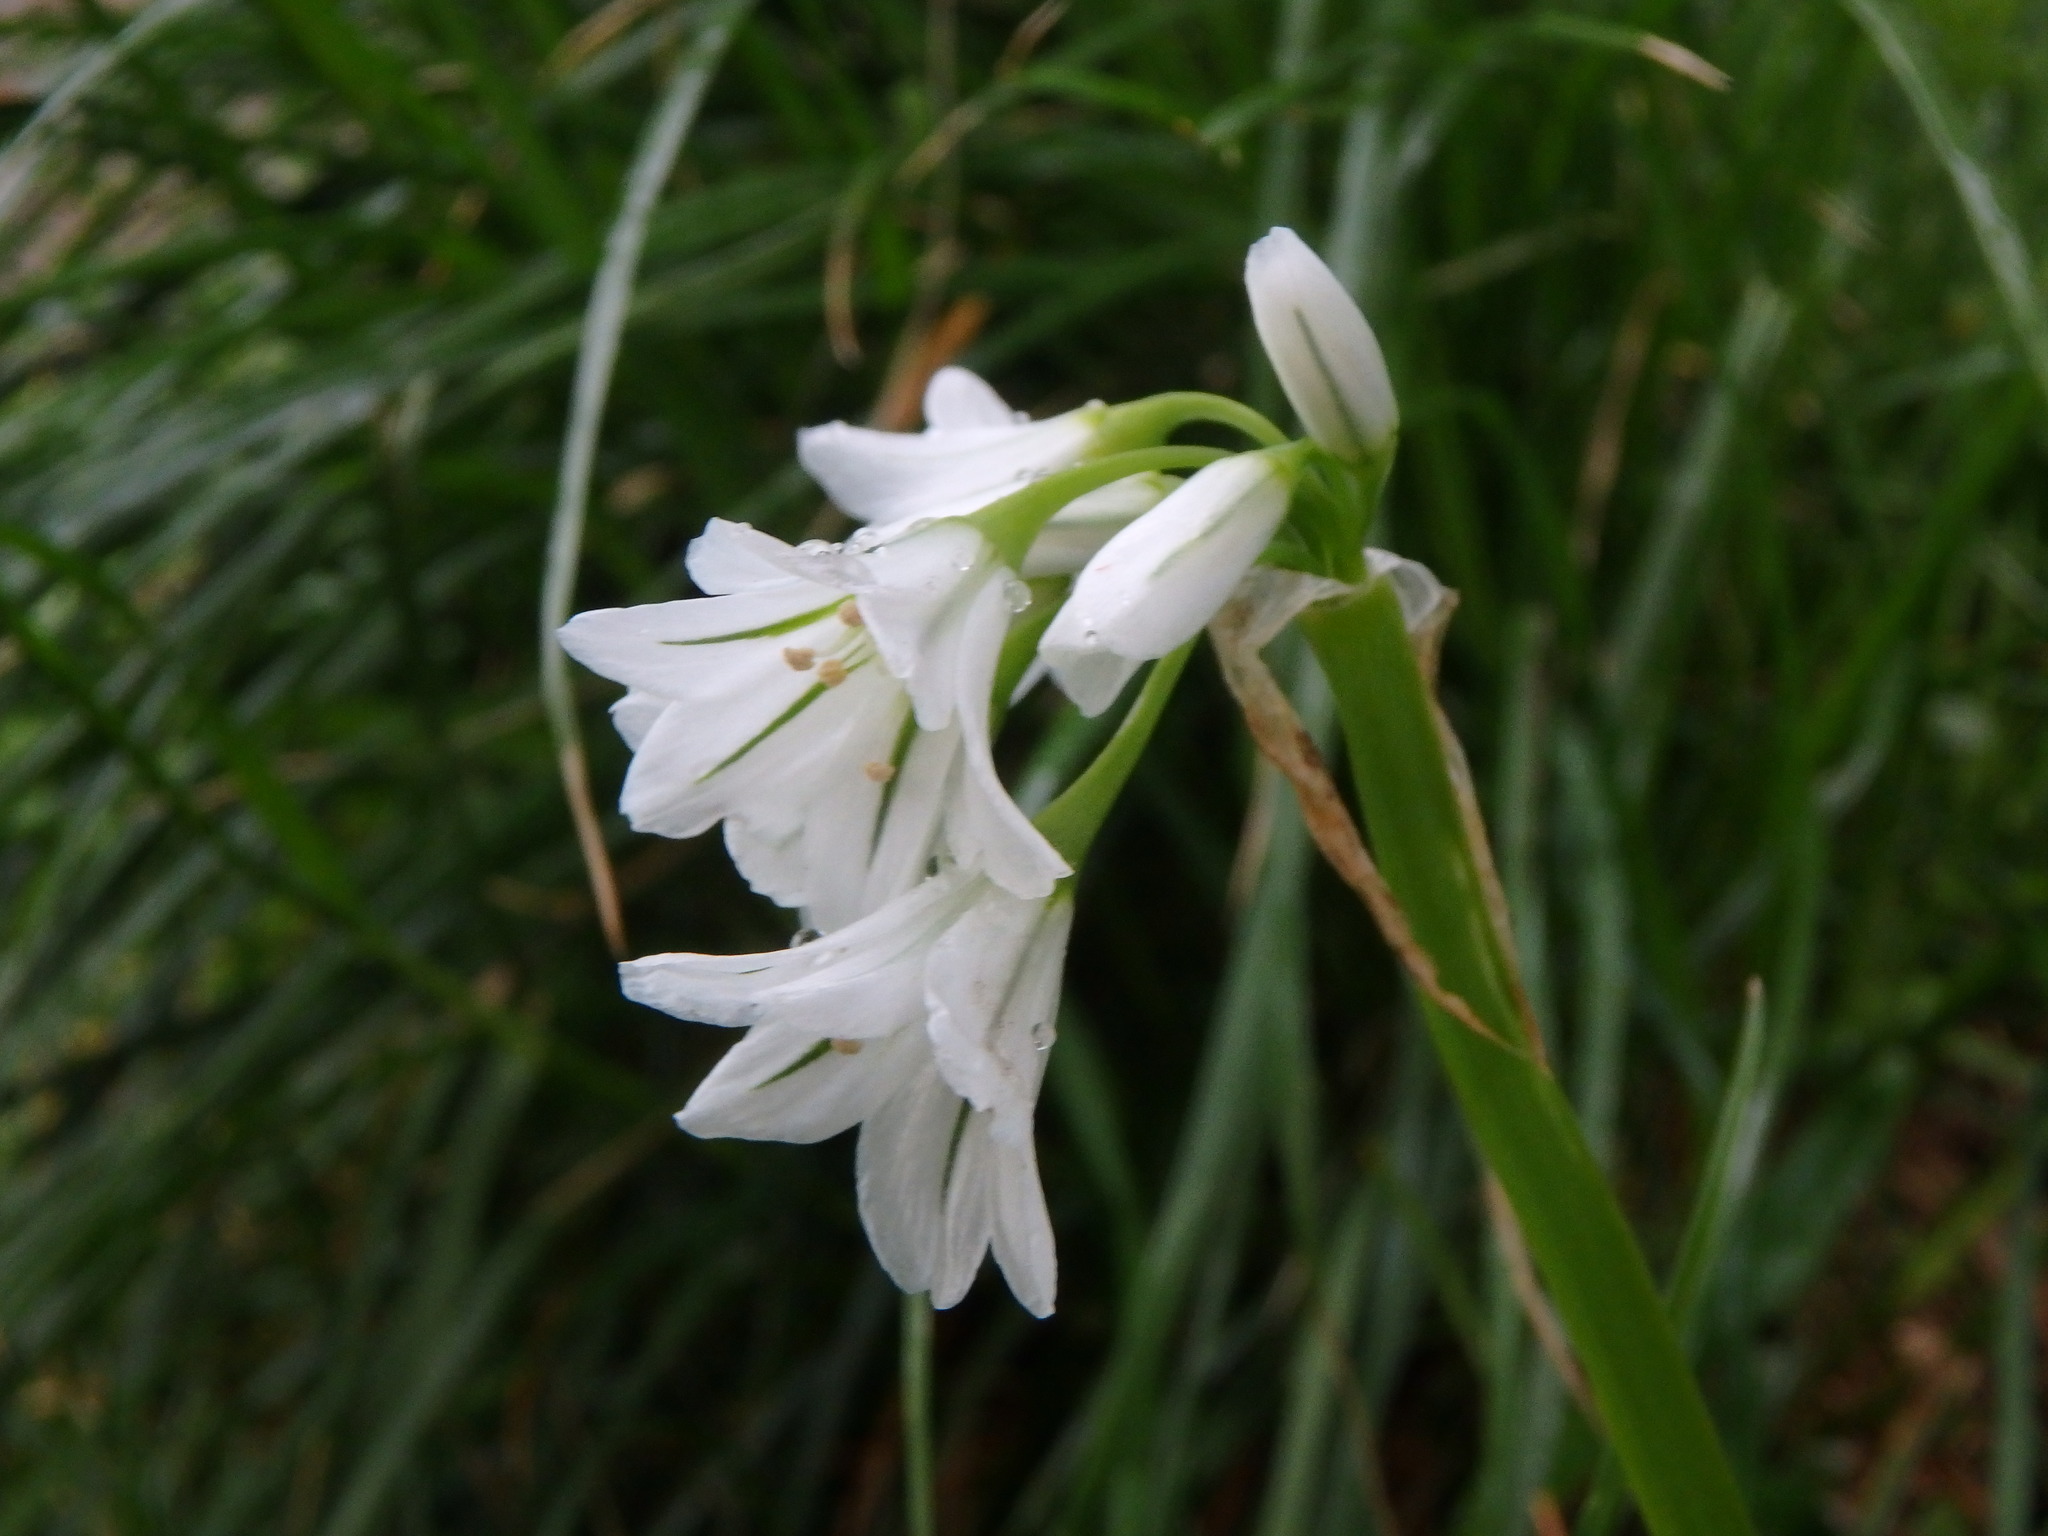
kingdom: Plantae
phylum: Tracheophyta
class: Liliopsida
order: Asparagales
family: Amaryllidaceae
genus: Allium
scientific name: Allium triquetrum
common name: Three-cornered garlic
